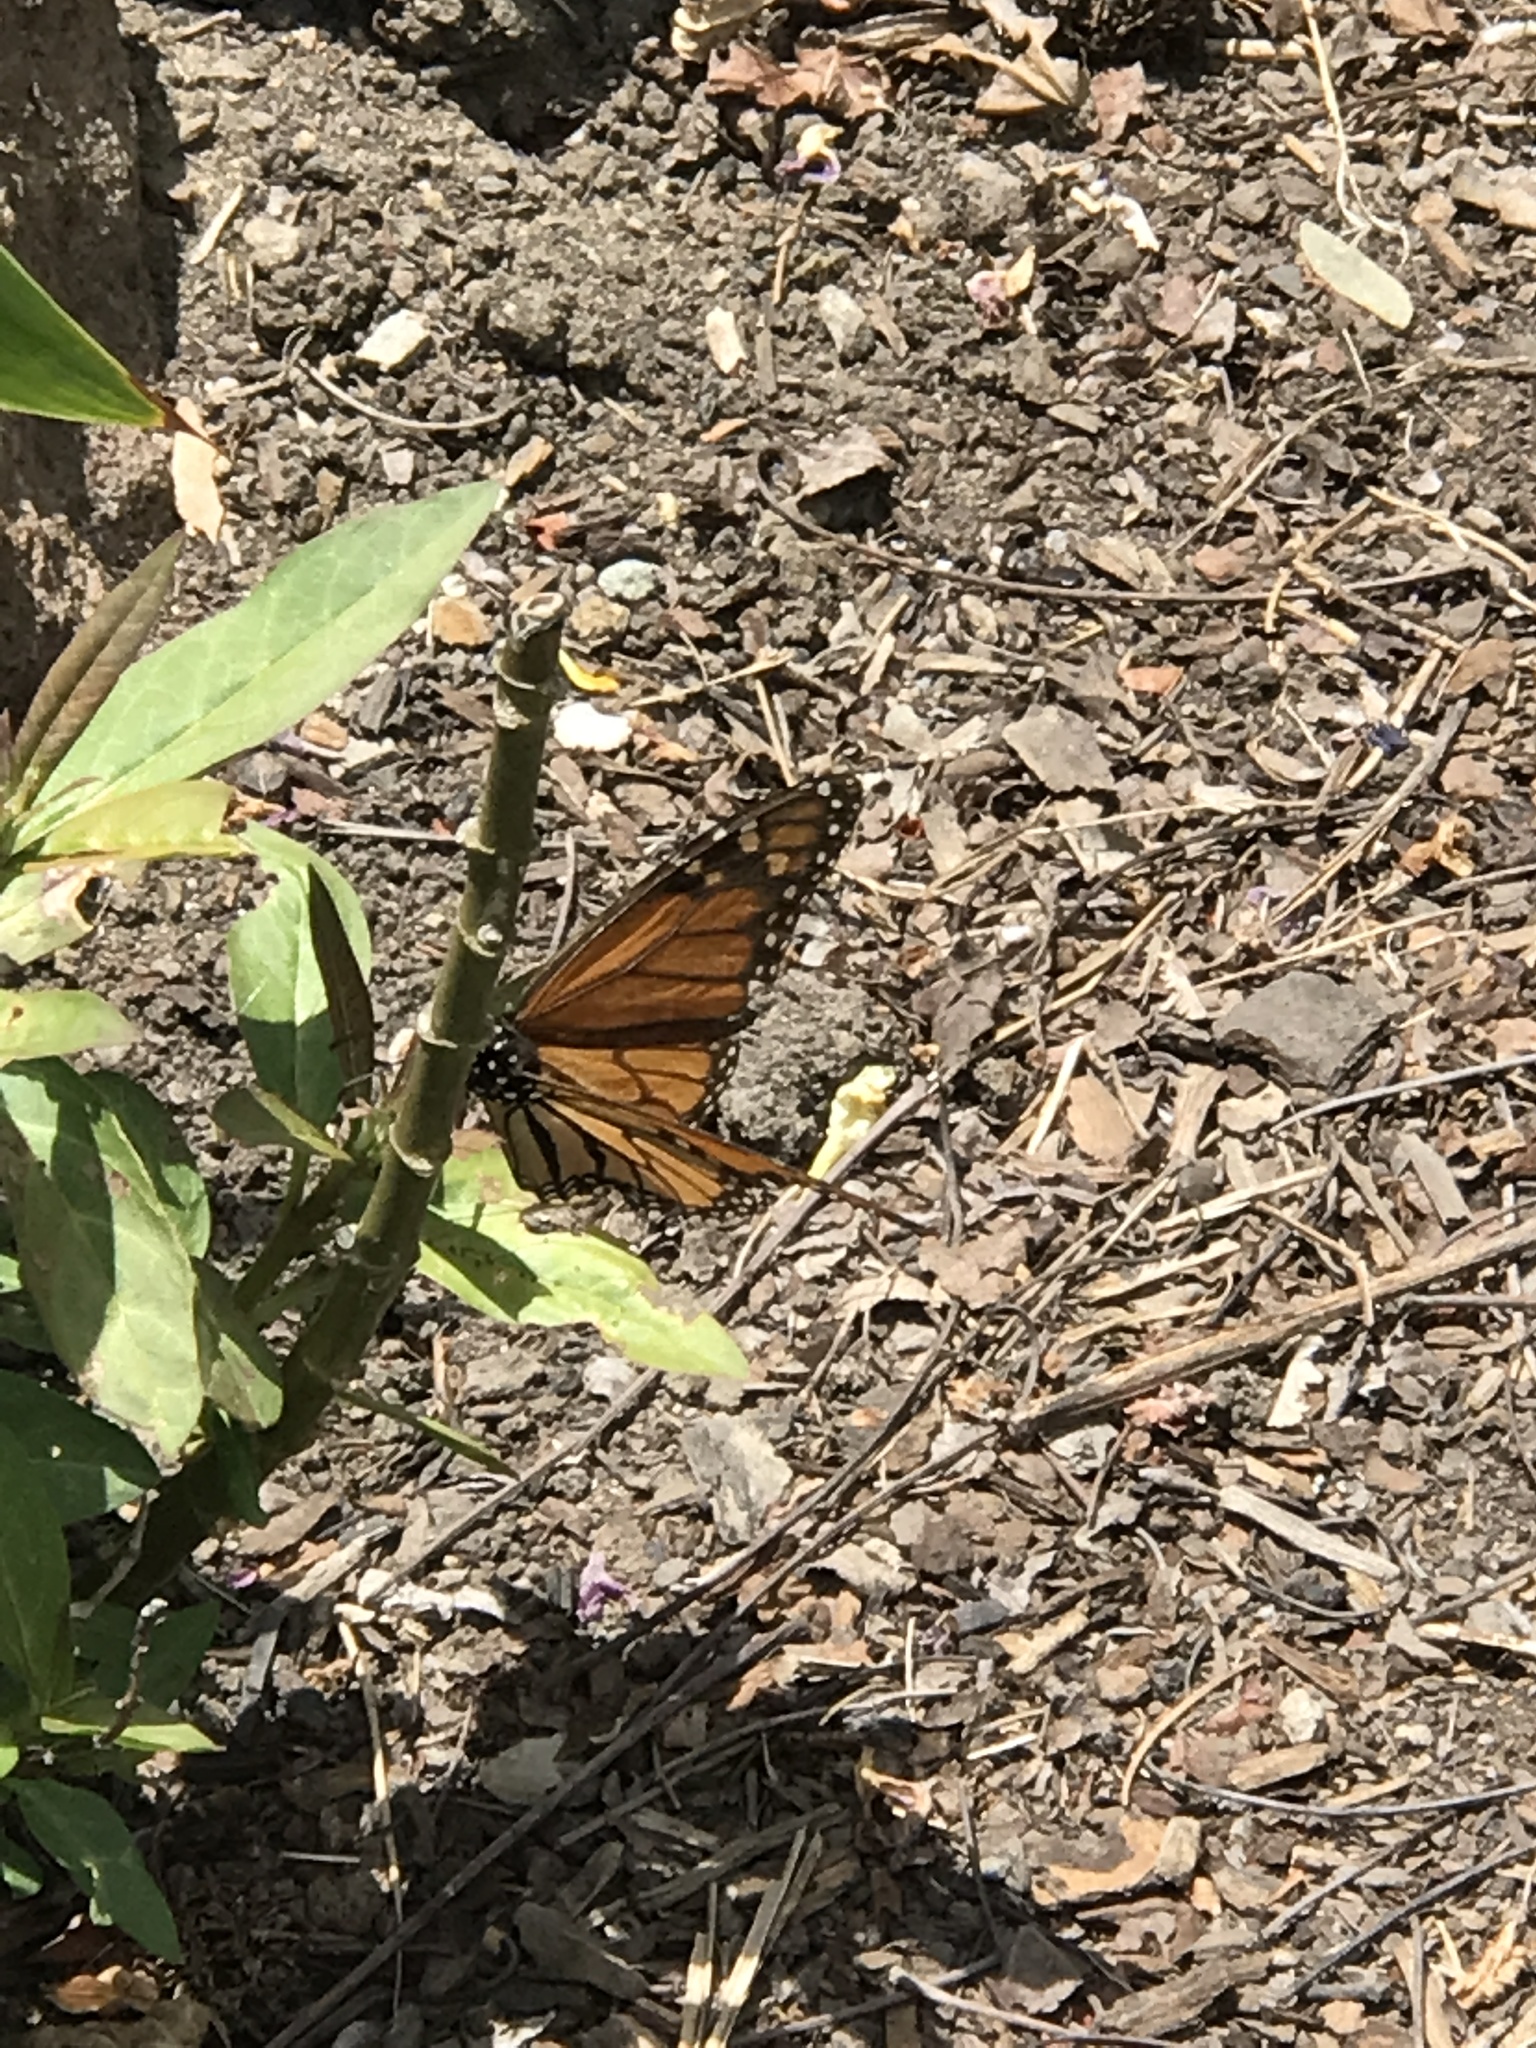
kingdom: Animalia
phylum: Arthropoda
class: Insecta
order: Lepidoptera
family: Nymphalidae
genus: Danaus
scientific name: Danaus plexippus
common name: Monarch
